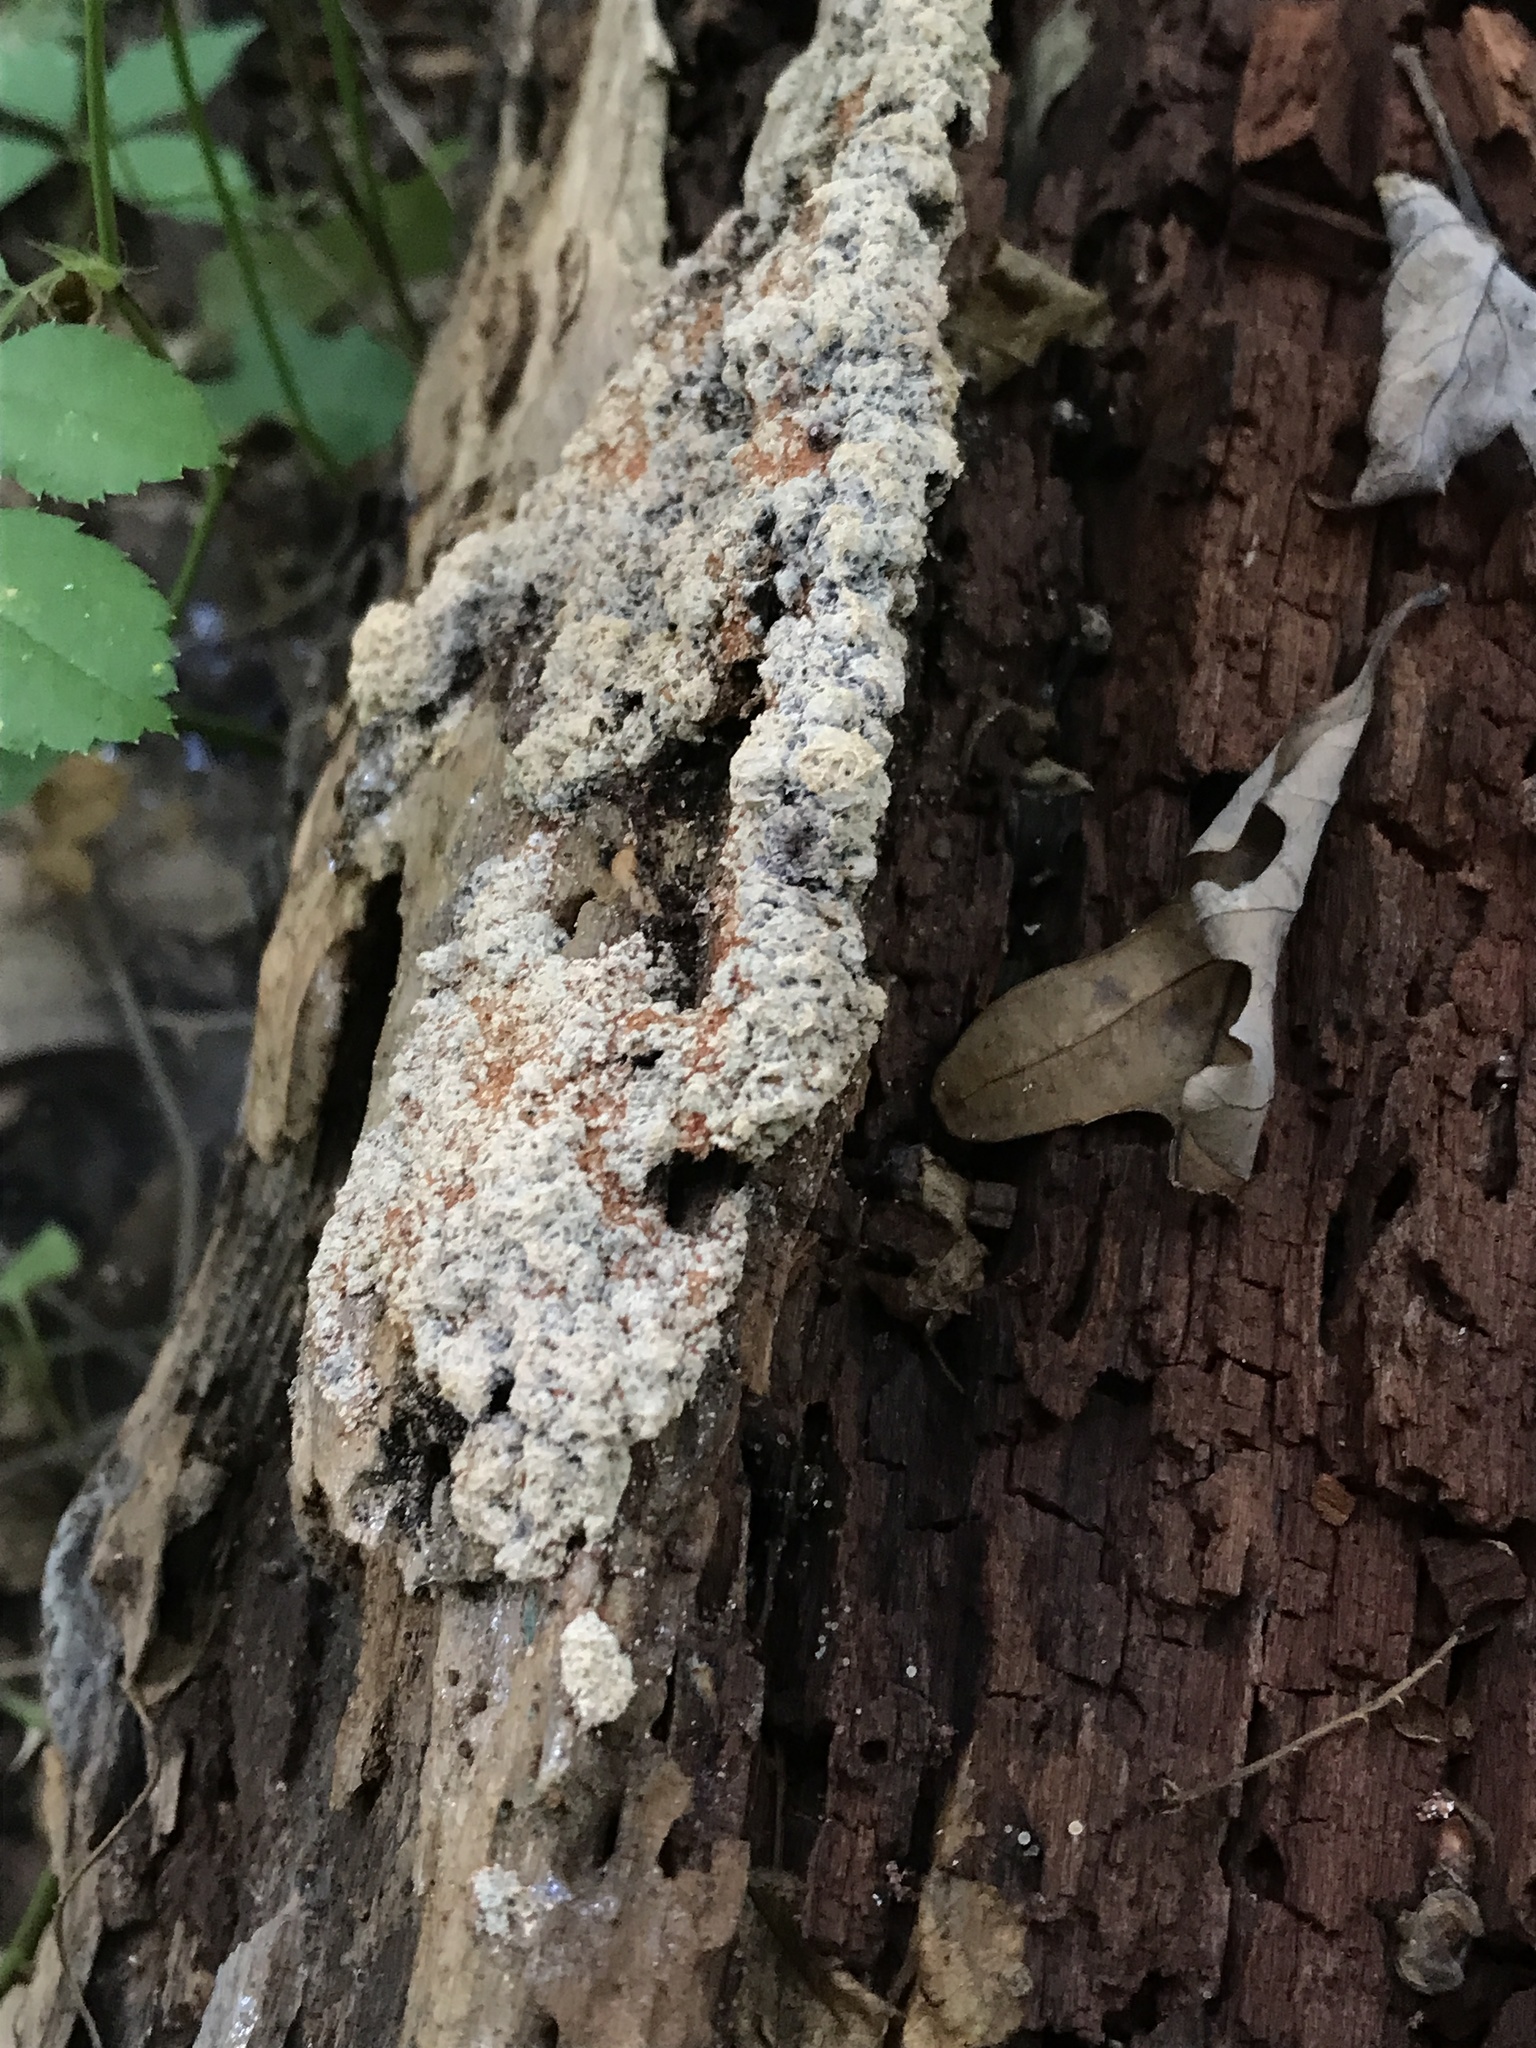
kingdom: Protozoa
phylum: Mycetozoa
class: Myxomycetes
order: Physarales
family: Physaraceae
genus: Fuligo
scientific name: Fuligo septica
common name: Dog vomit slime mold
